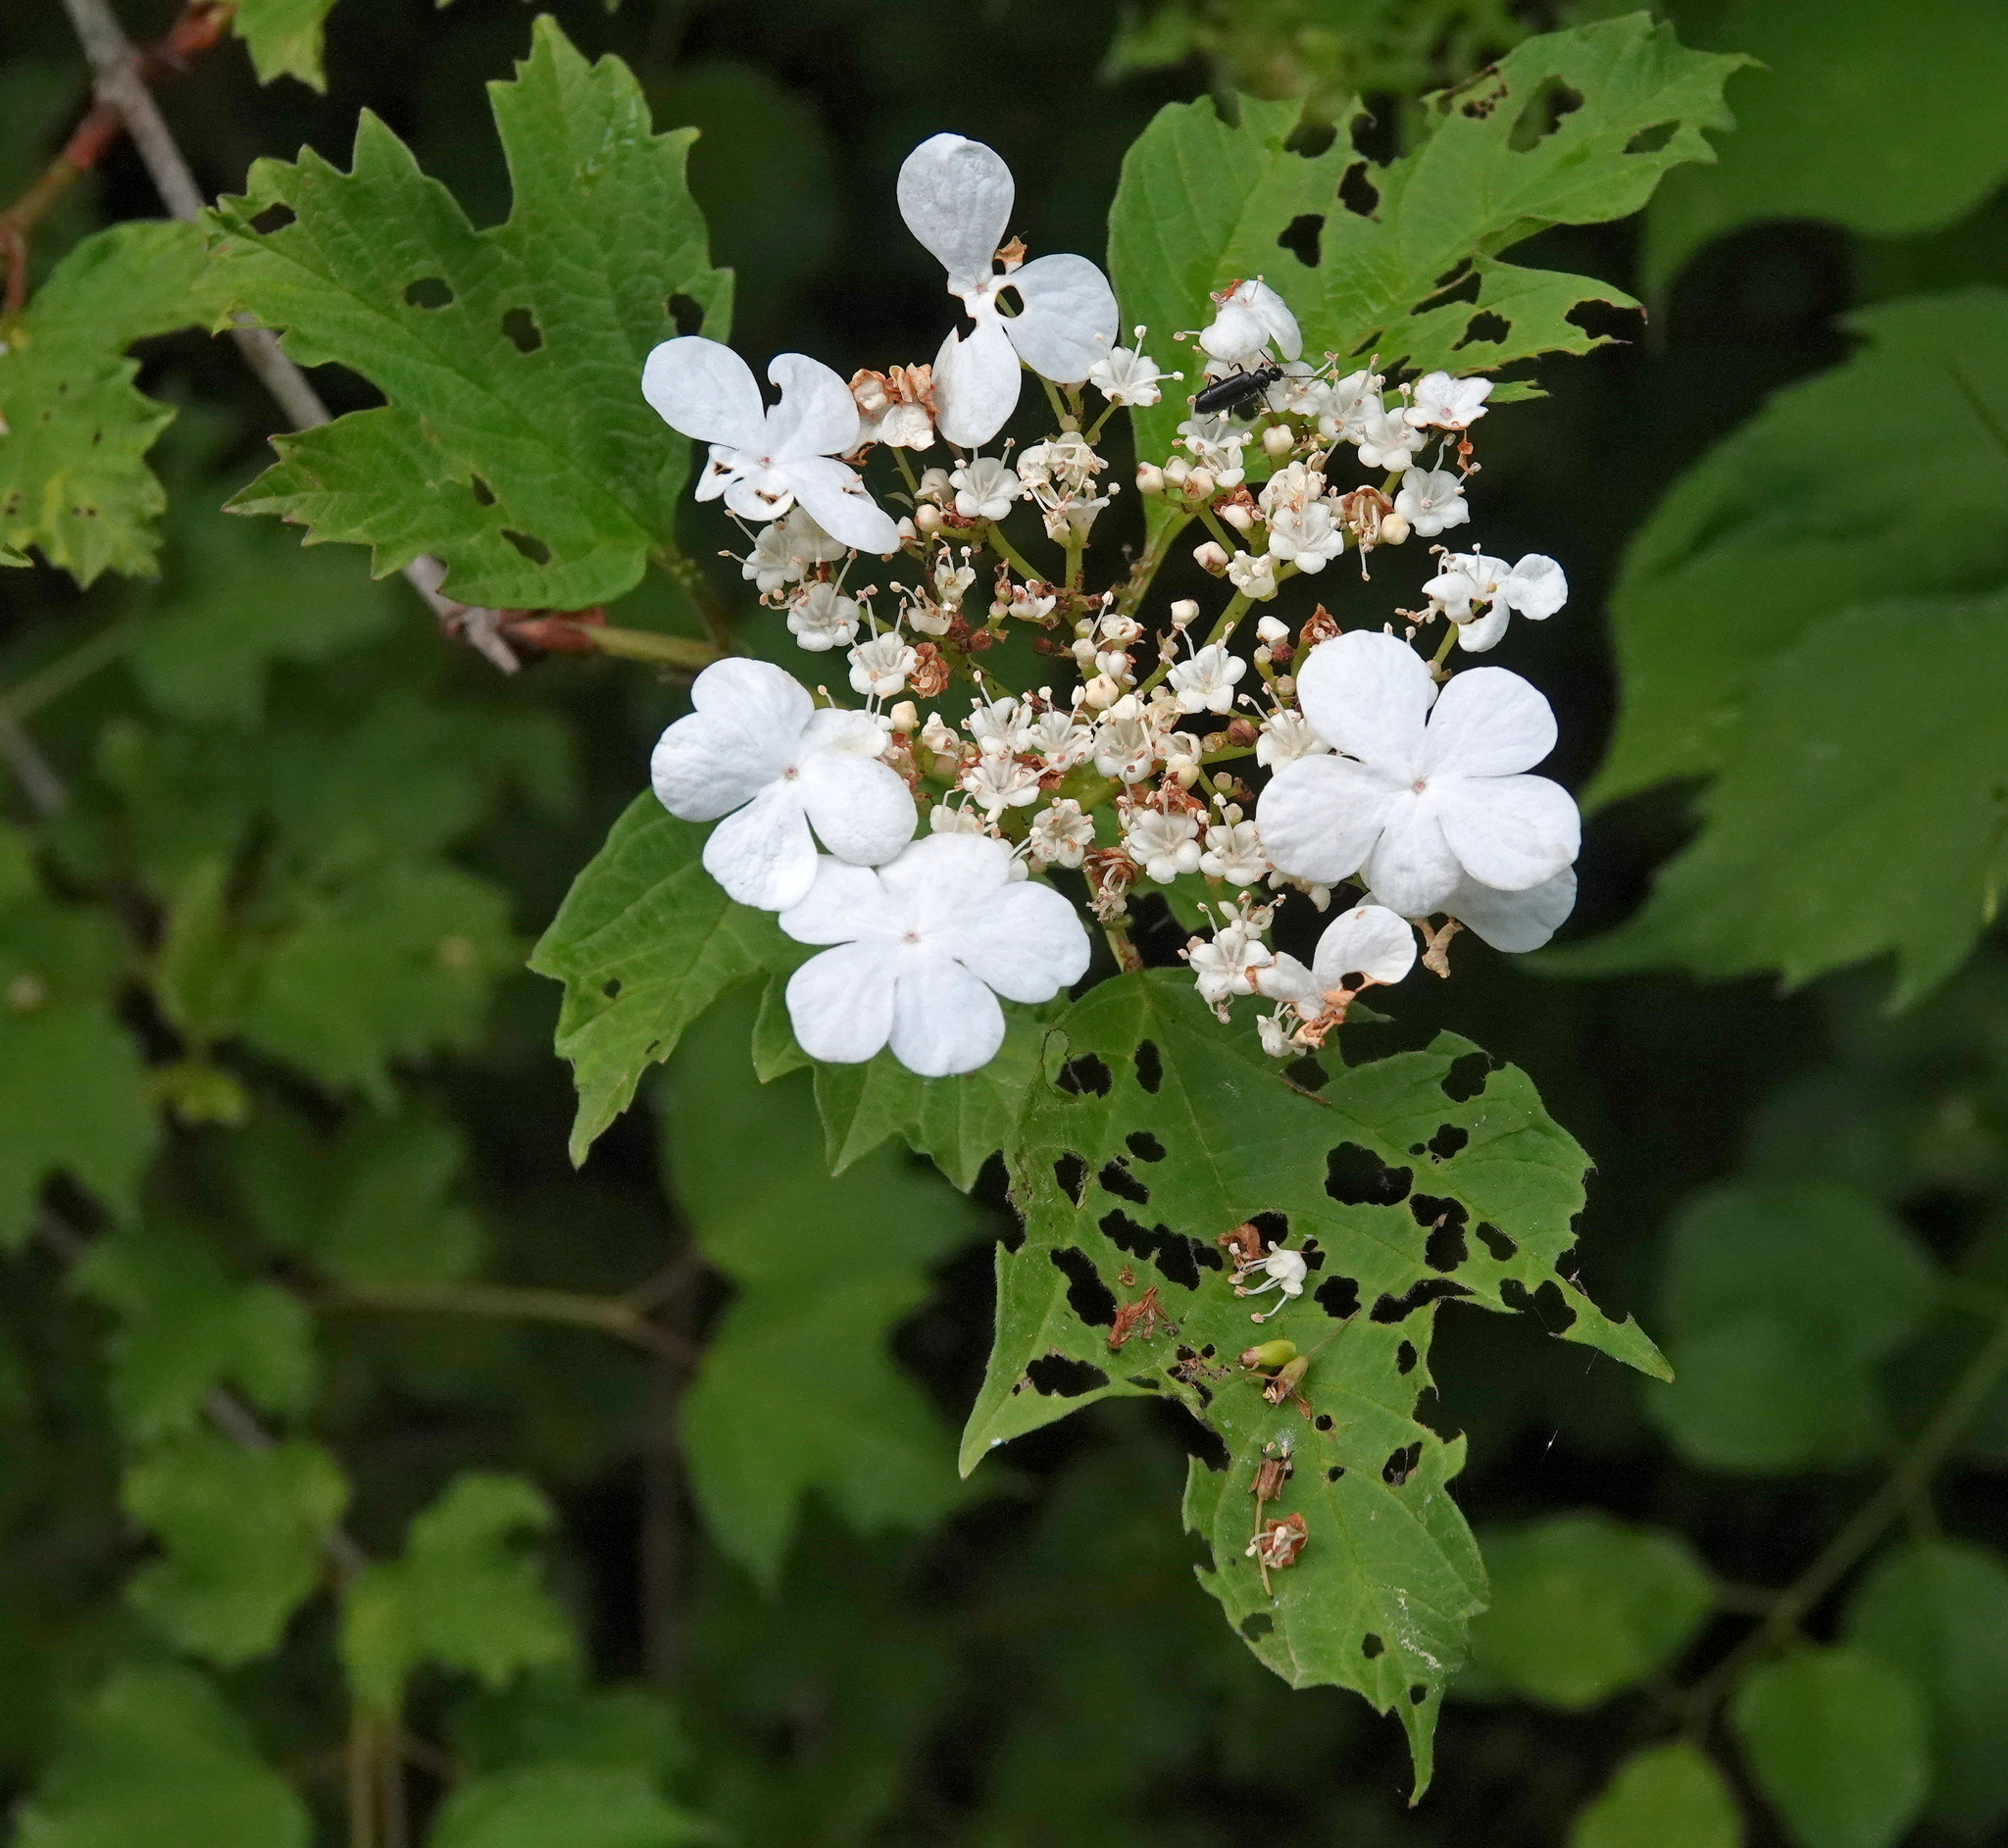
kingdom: Plantae
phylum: Tracheophyta
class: Magnoliopsida
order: Dipsacales
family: Viburnaceae
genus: Viburnum
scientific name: Viburnum opulus
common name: Guelder-rose
